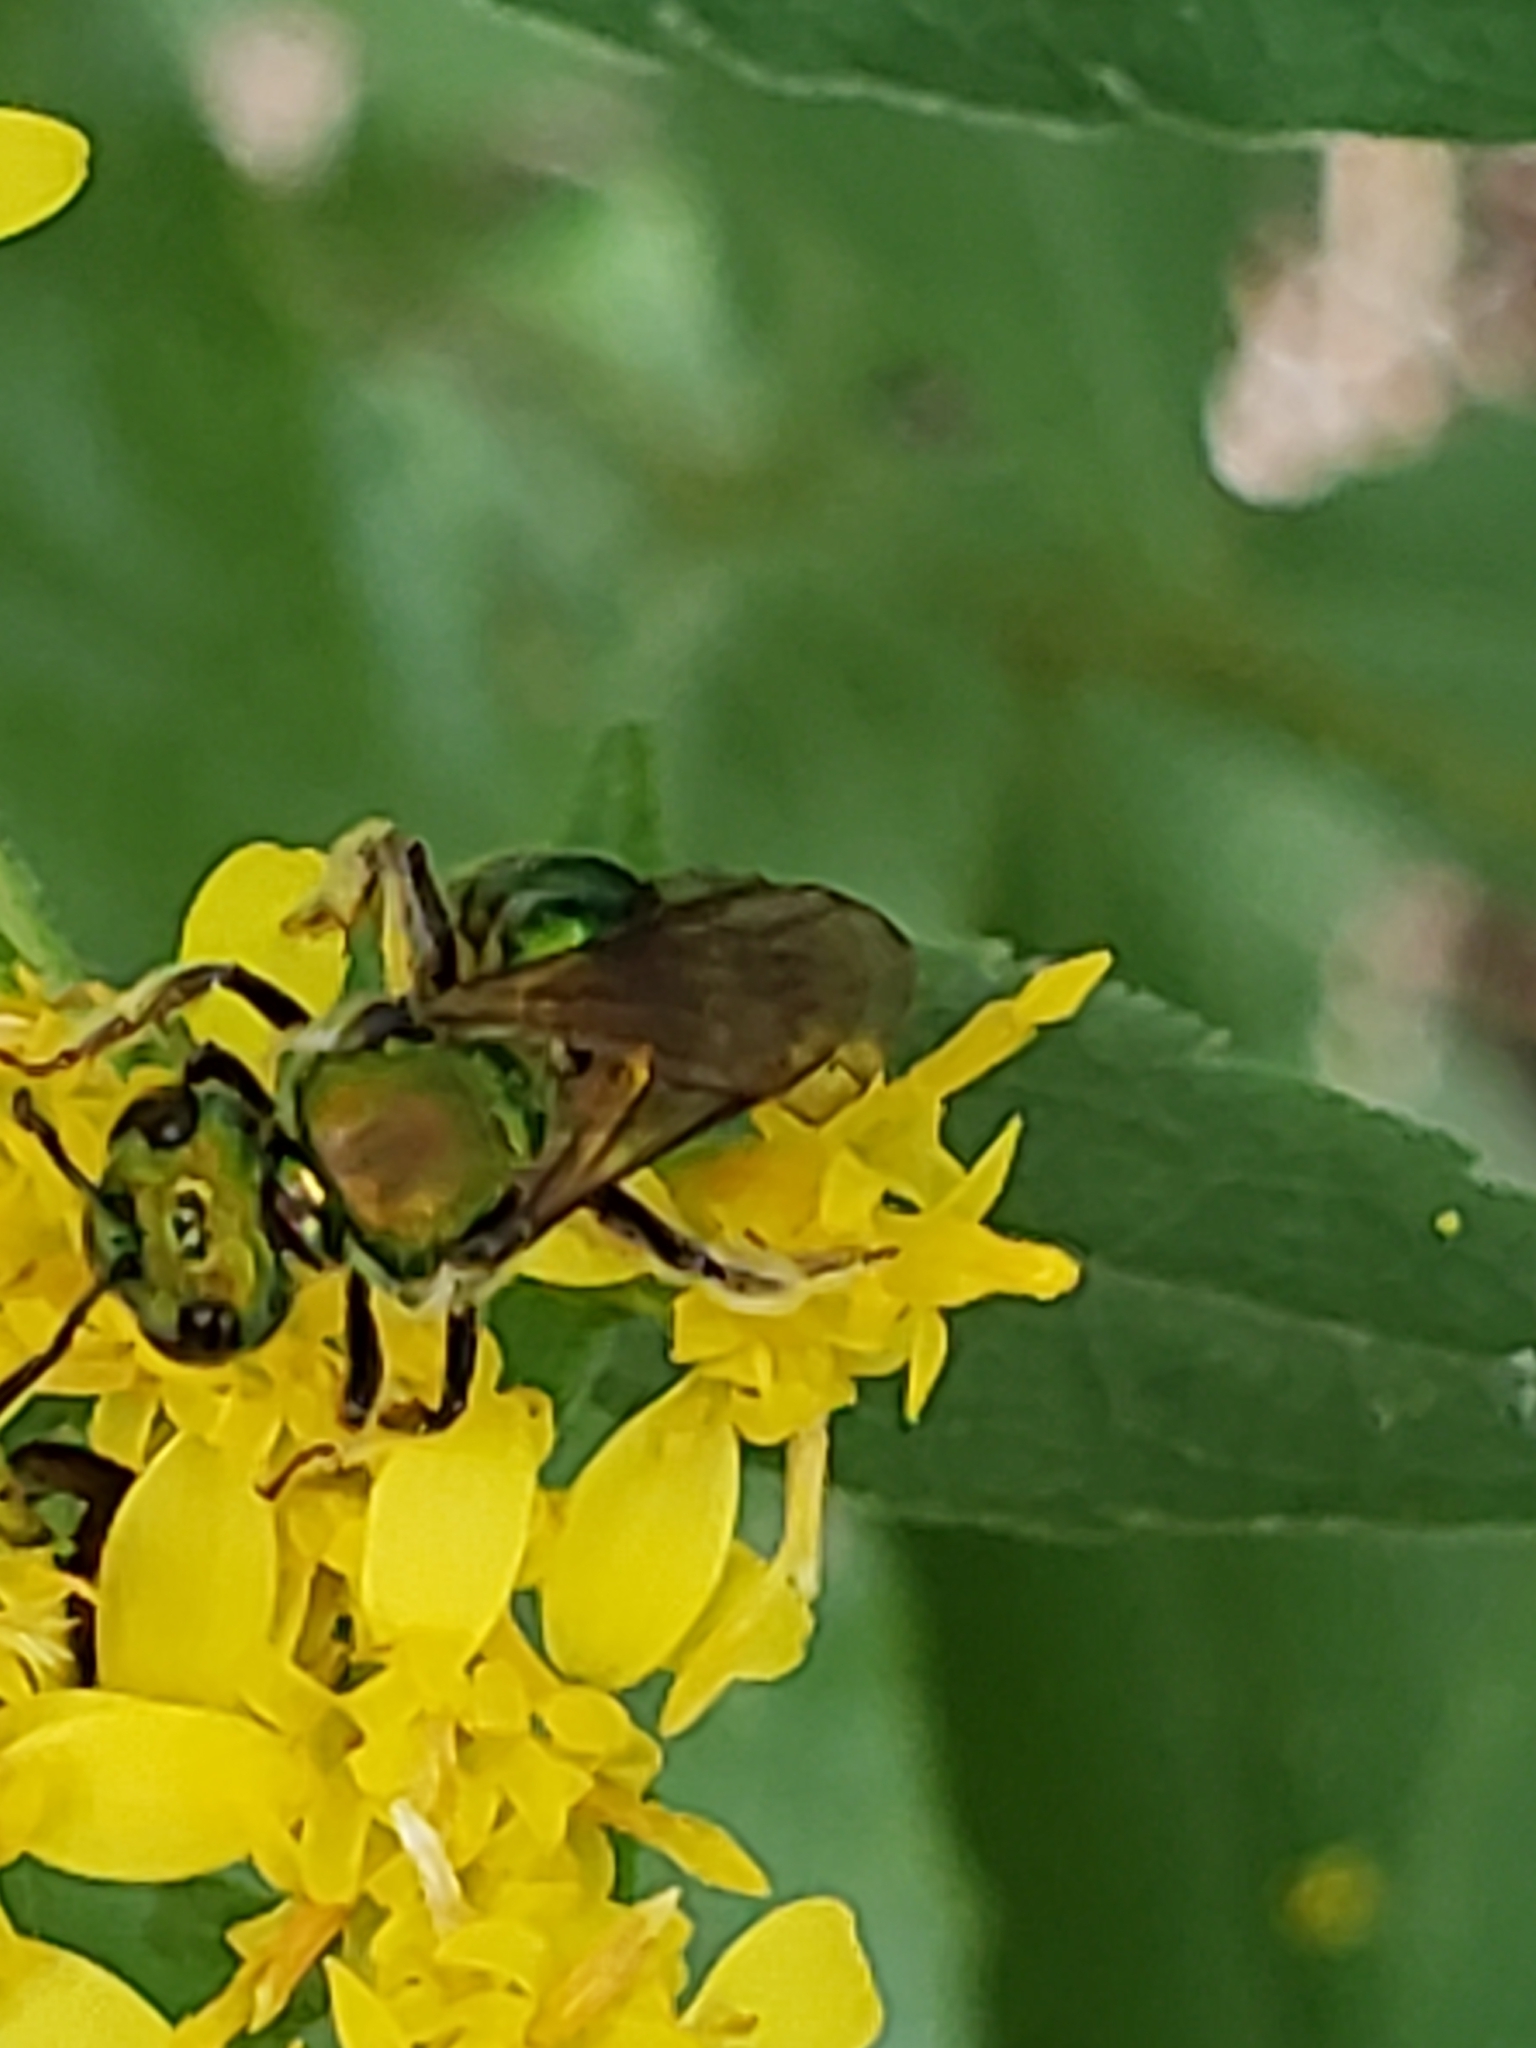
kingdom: Animalia
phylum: Arthropoda
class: Insecta
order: Hymenoptera
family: Halictidae
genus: Augochlora
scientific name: Augochlora pura
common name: Pure green sweat bee
